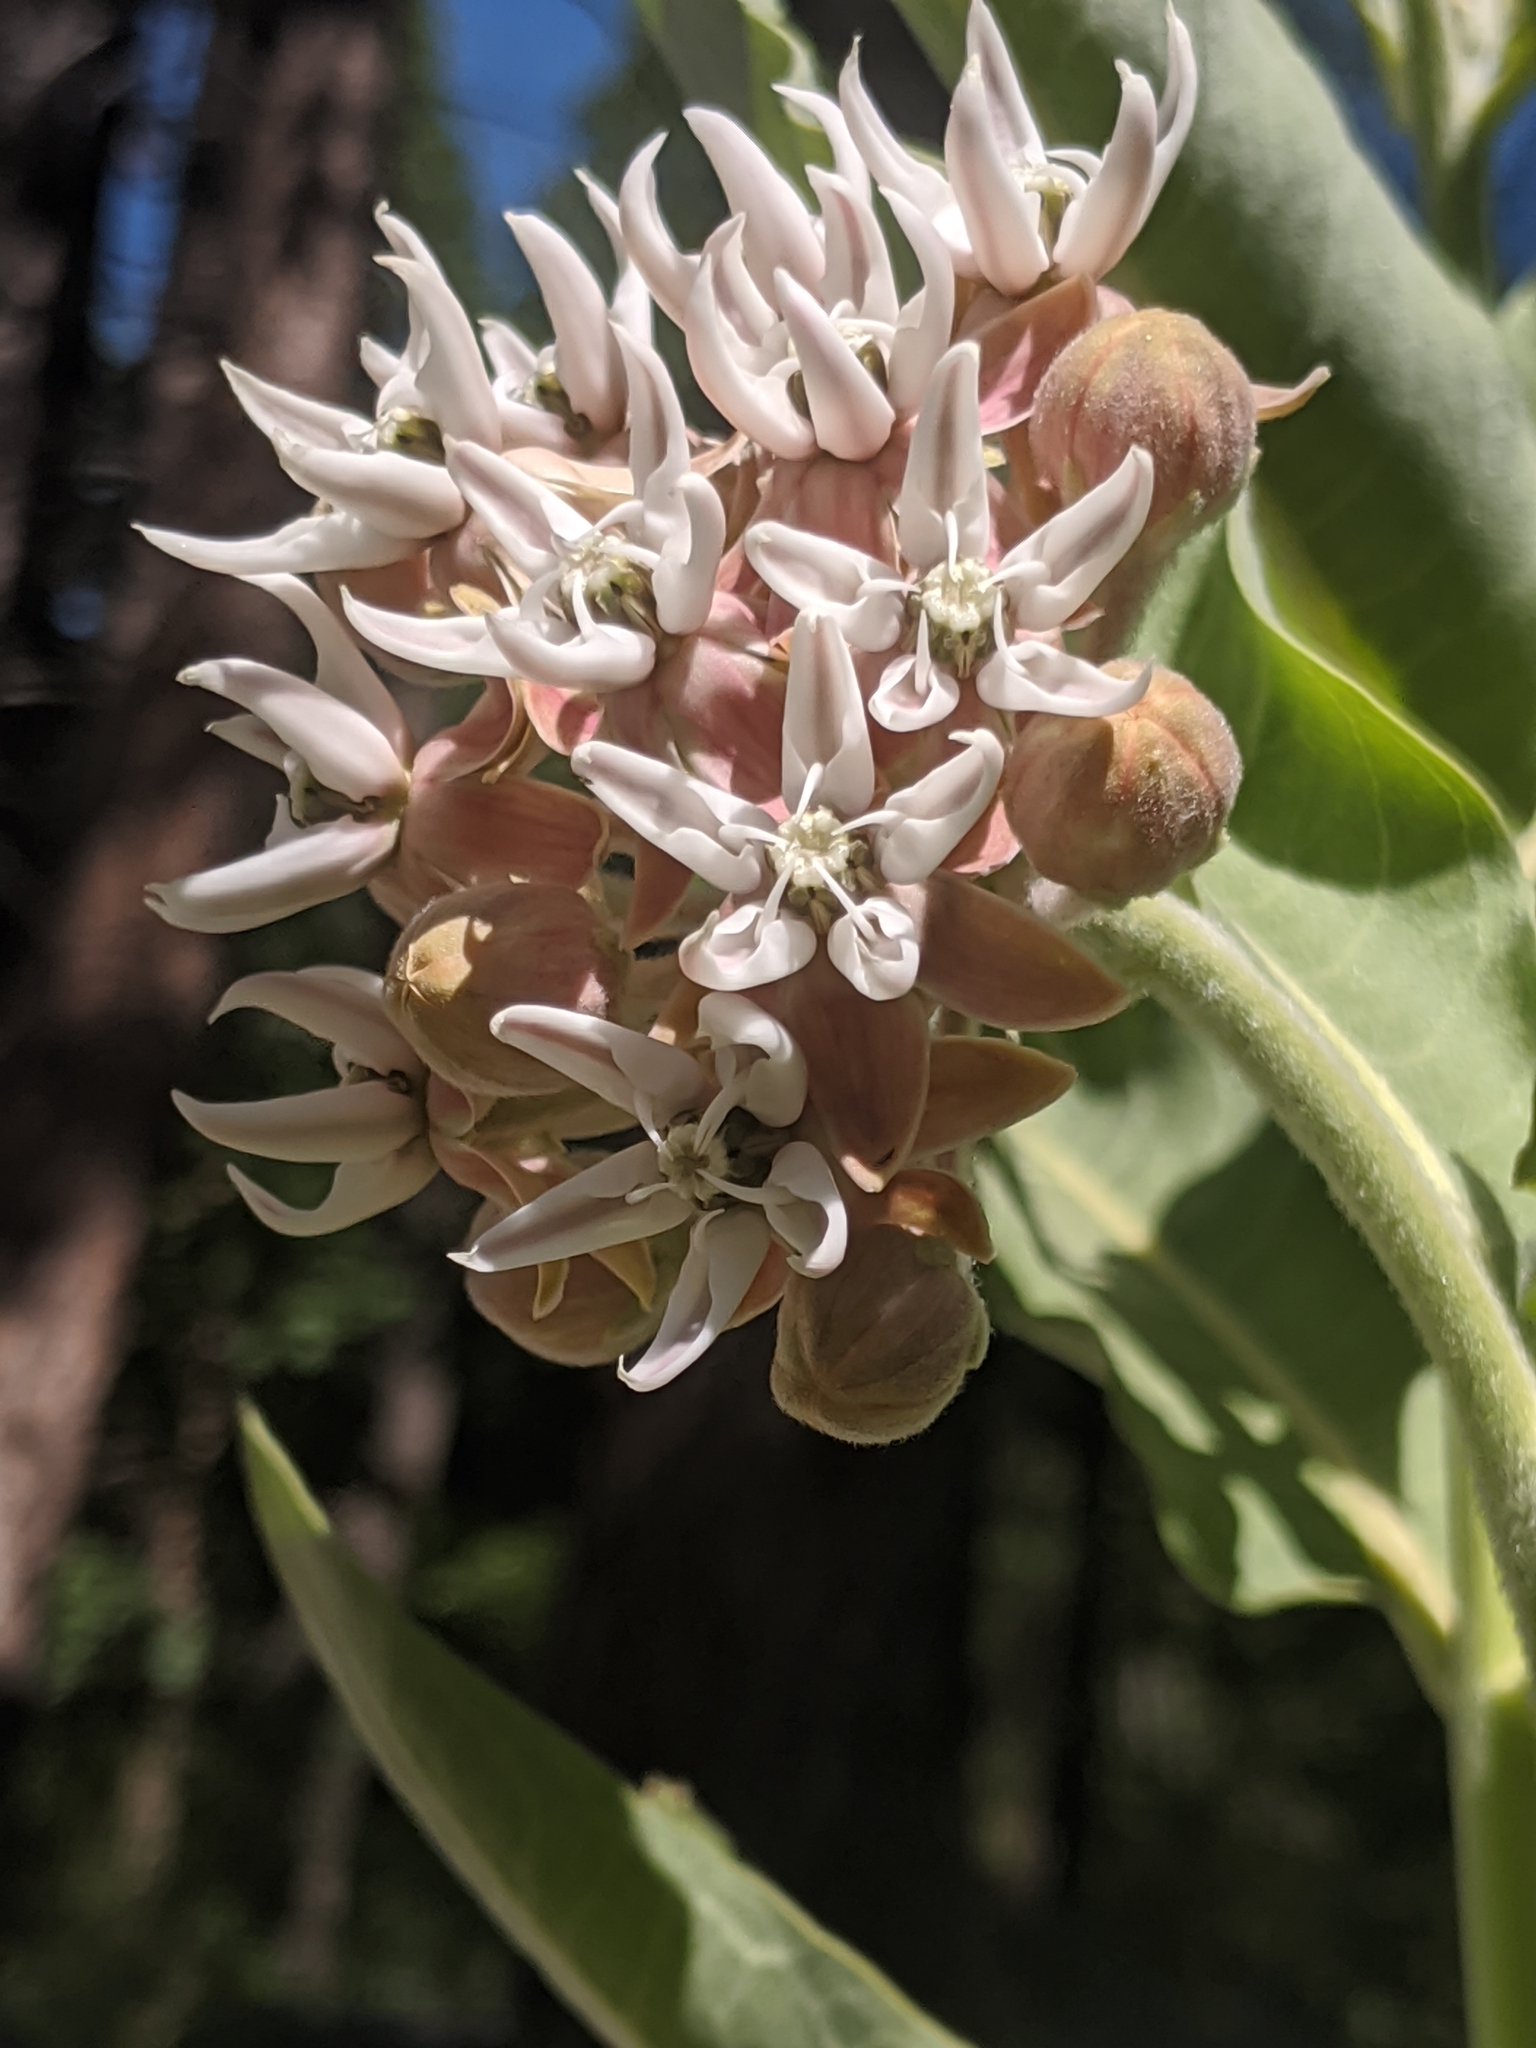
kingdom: Plantae
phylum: Tracheophyta
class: Magnoliopsida
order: Gentianales
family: Apocynaceae
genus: Asclepias
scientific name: Asclepias speciosa
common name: Showy milkweed
